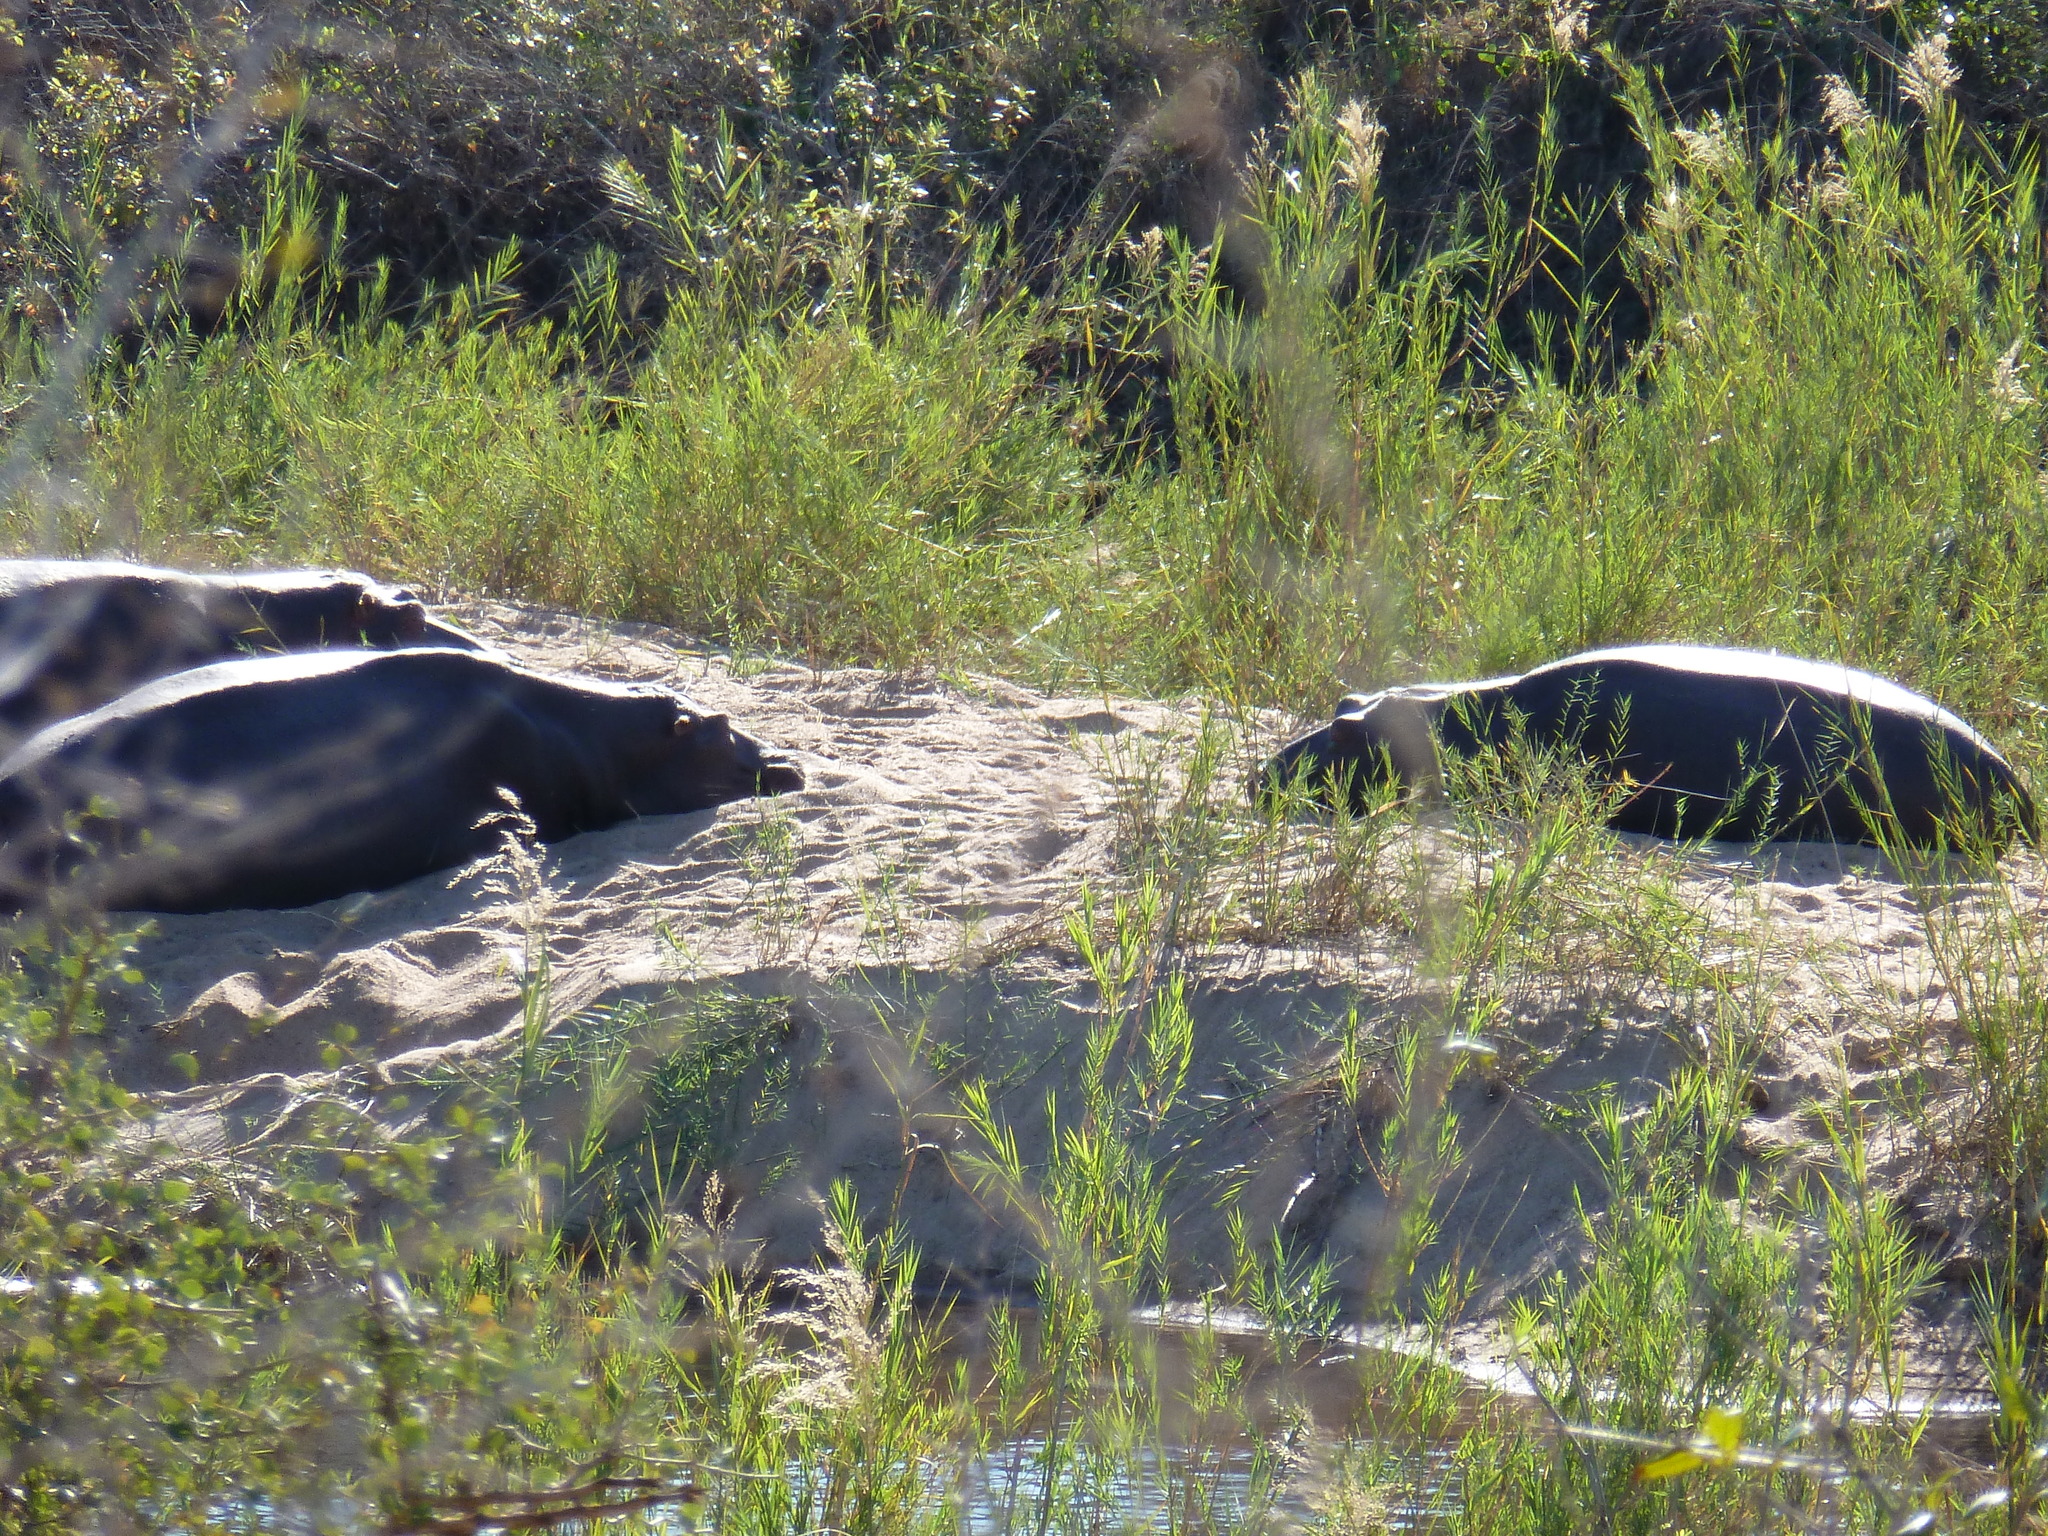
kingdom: Animalia
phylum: Chordata
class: Mammalia
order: Artiodactyla
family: Hippopotamidae
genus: Hippopotamus
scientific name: Hippopotamus amphibius
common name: Common hippopotamus
